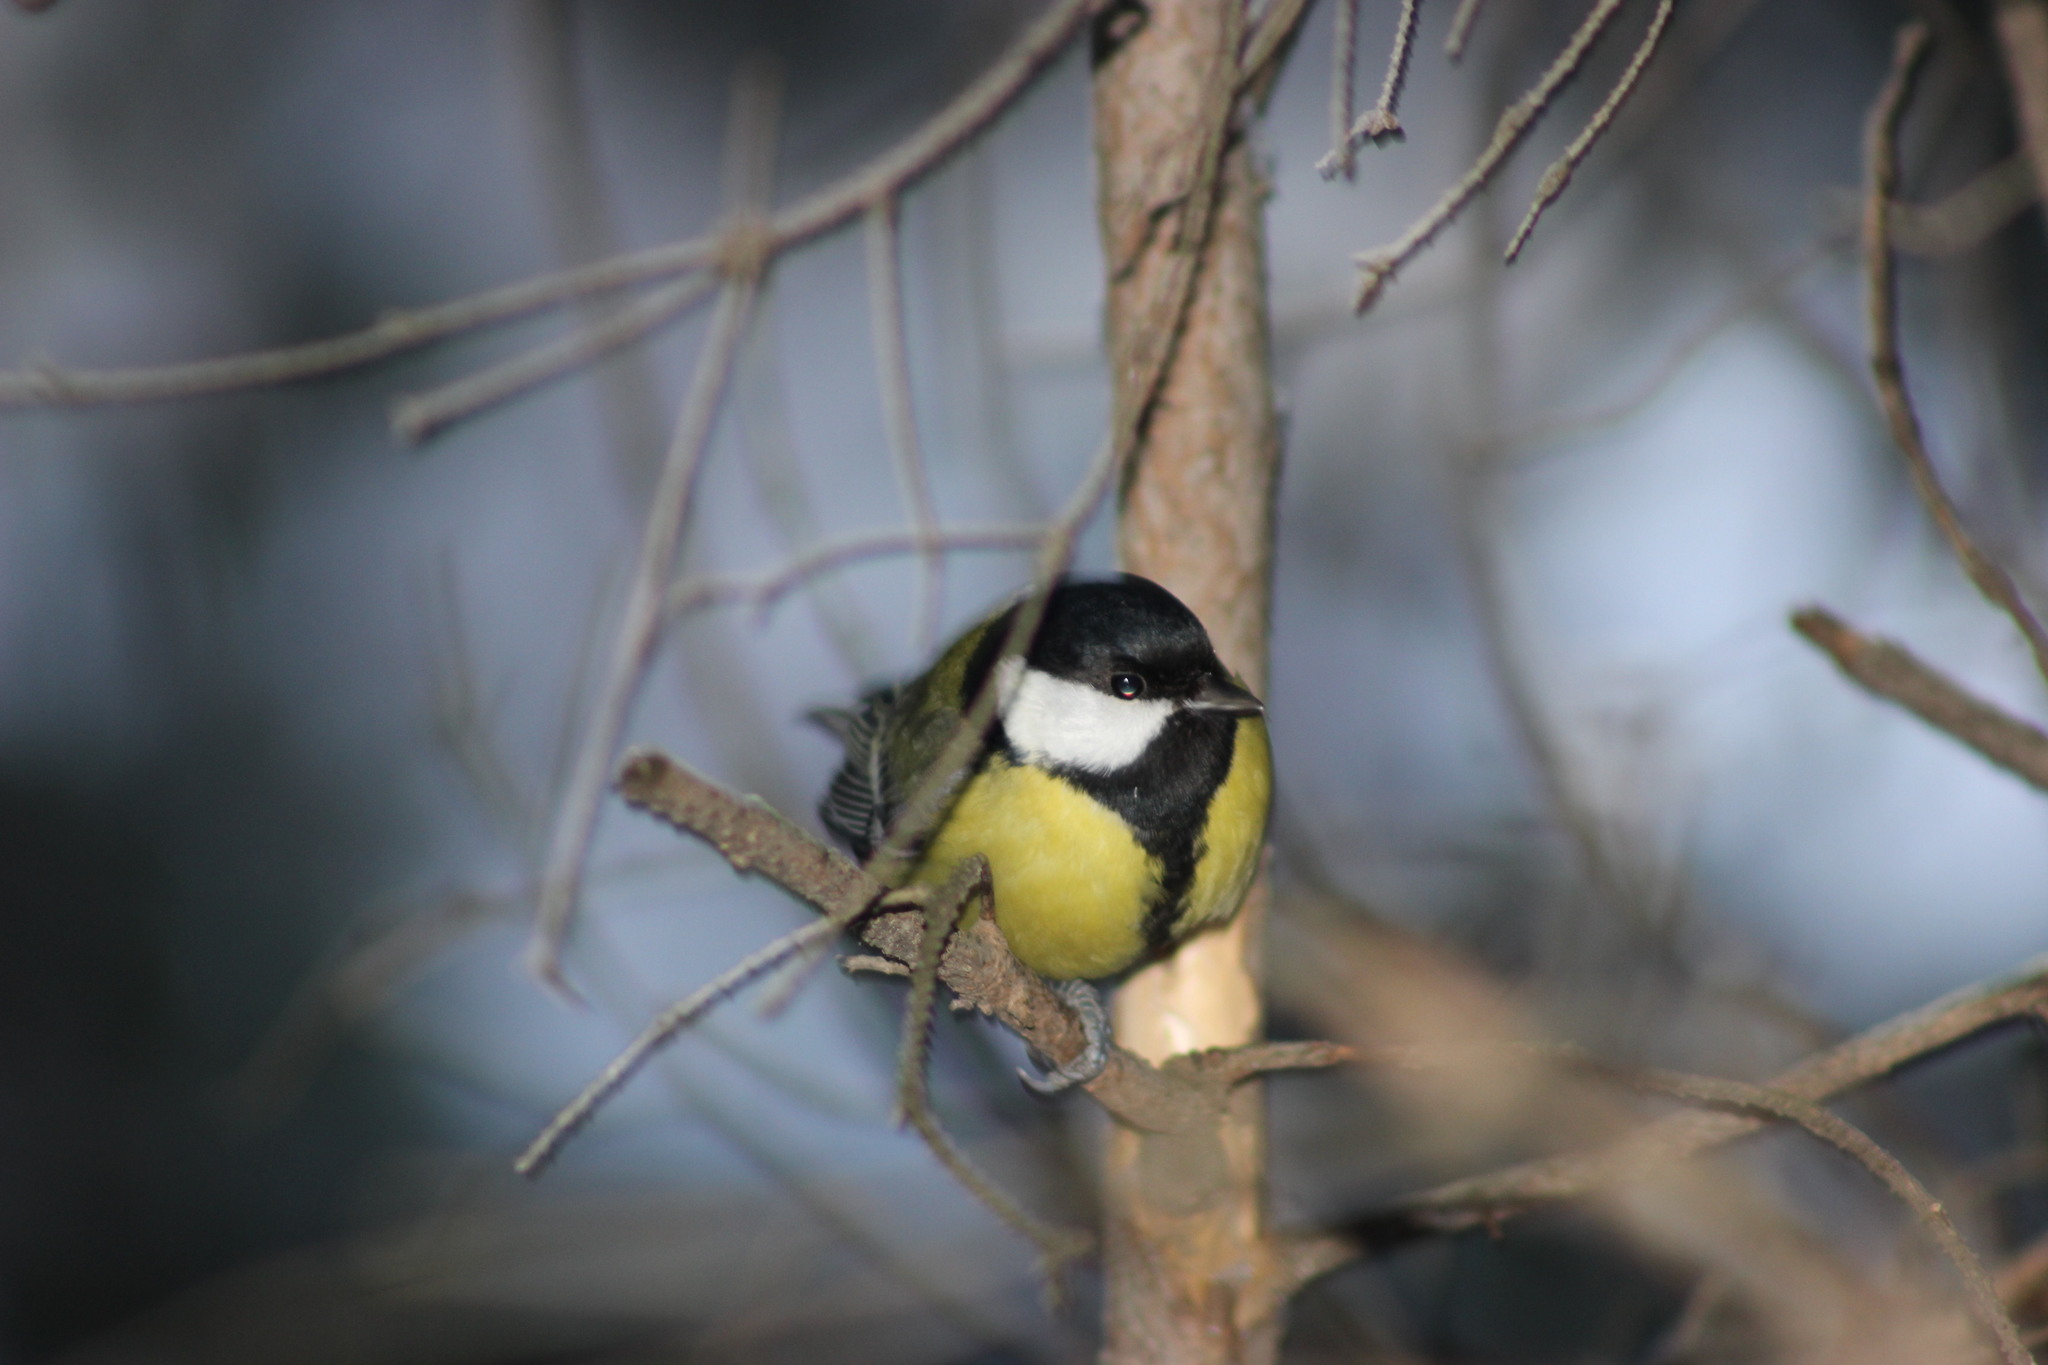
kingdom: Animalia
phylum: Chordata
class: Aves
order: Passeriformes
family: Paridae
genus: Parus
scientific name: Parus major
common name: Great tit
